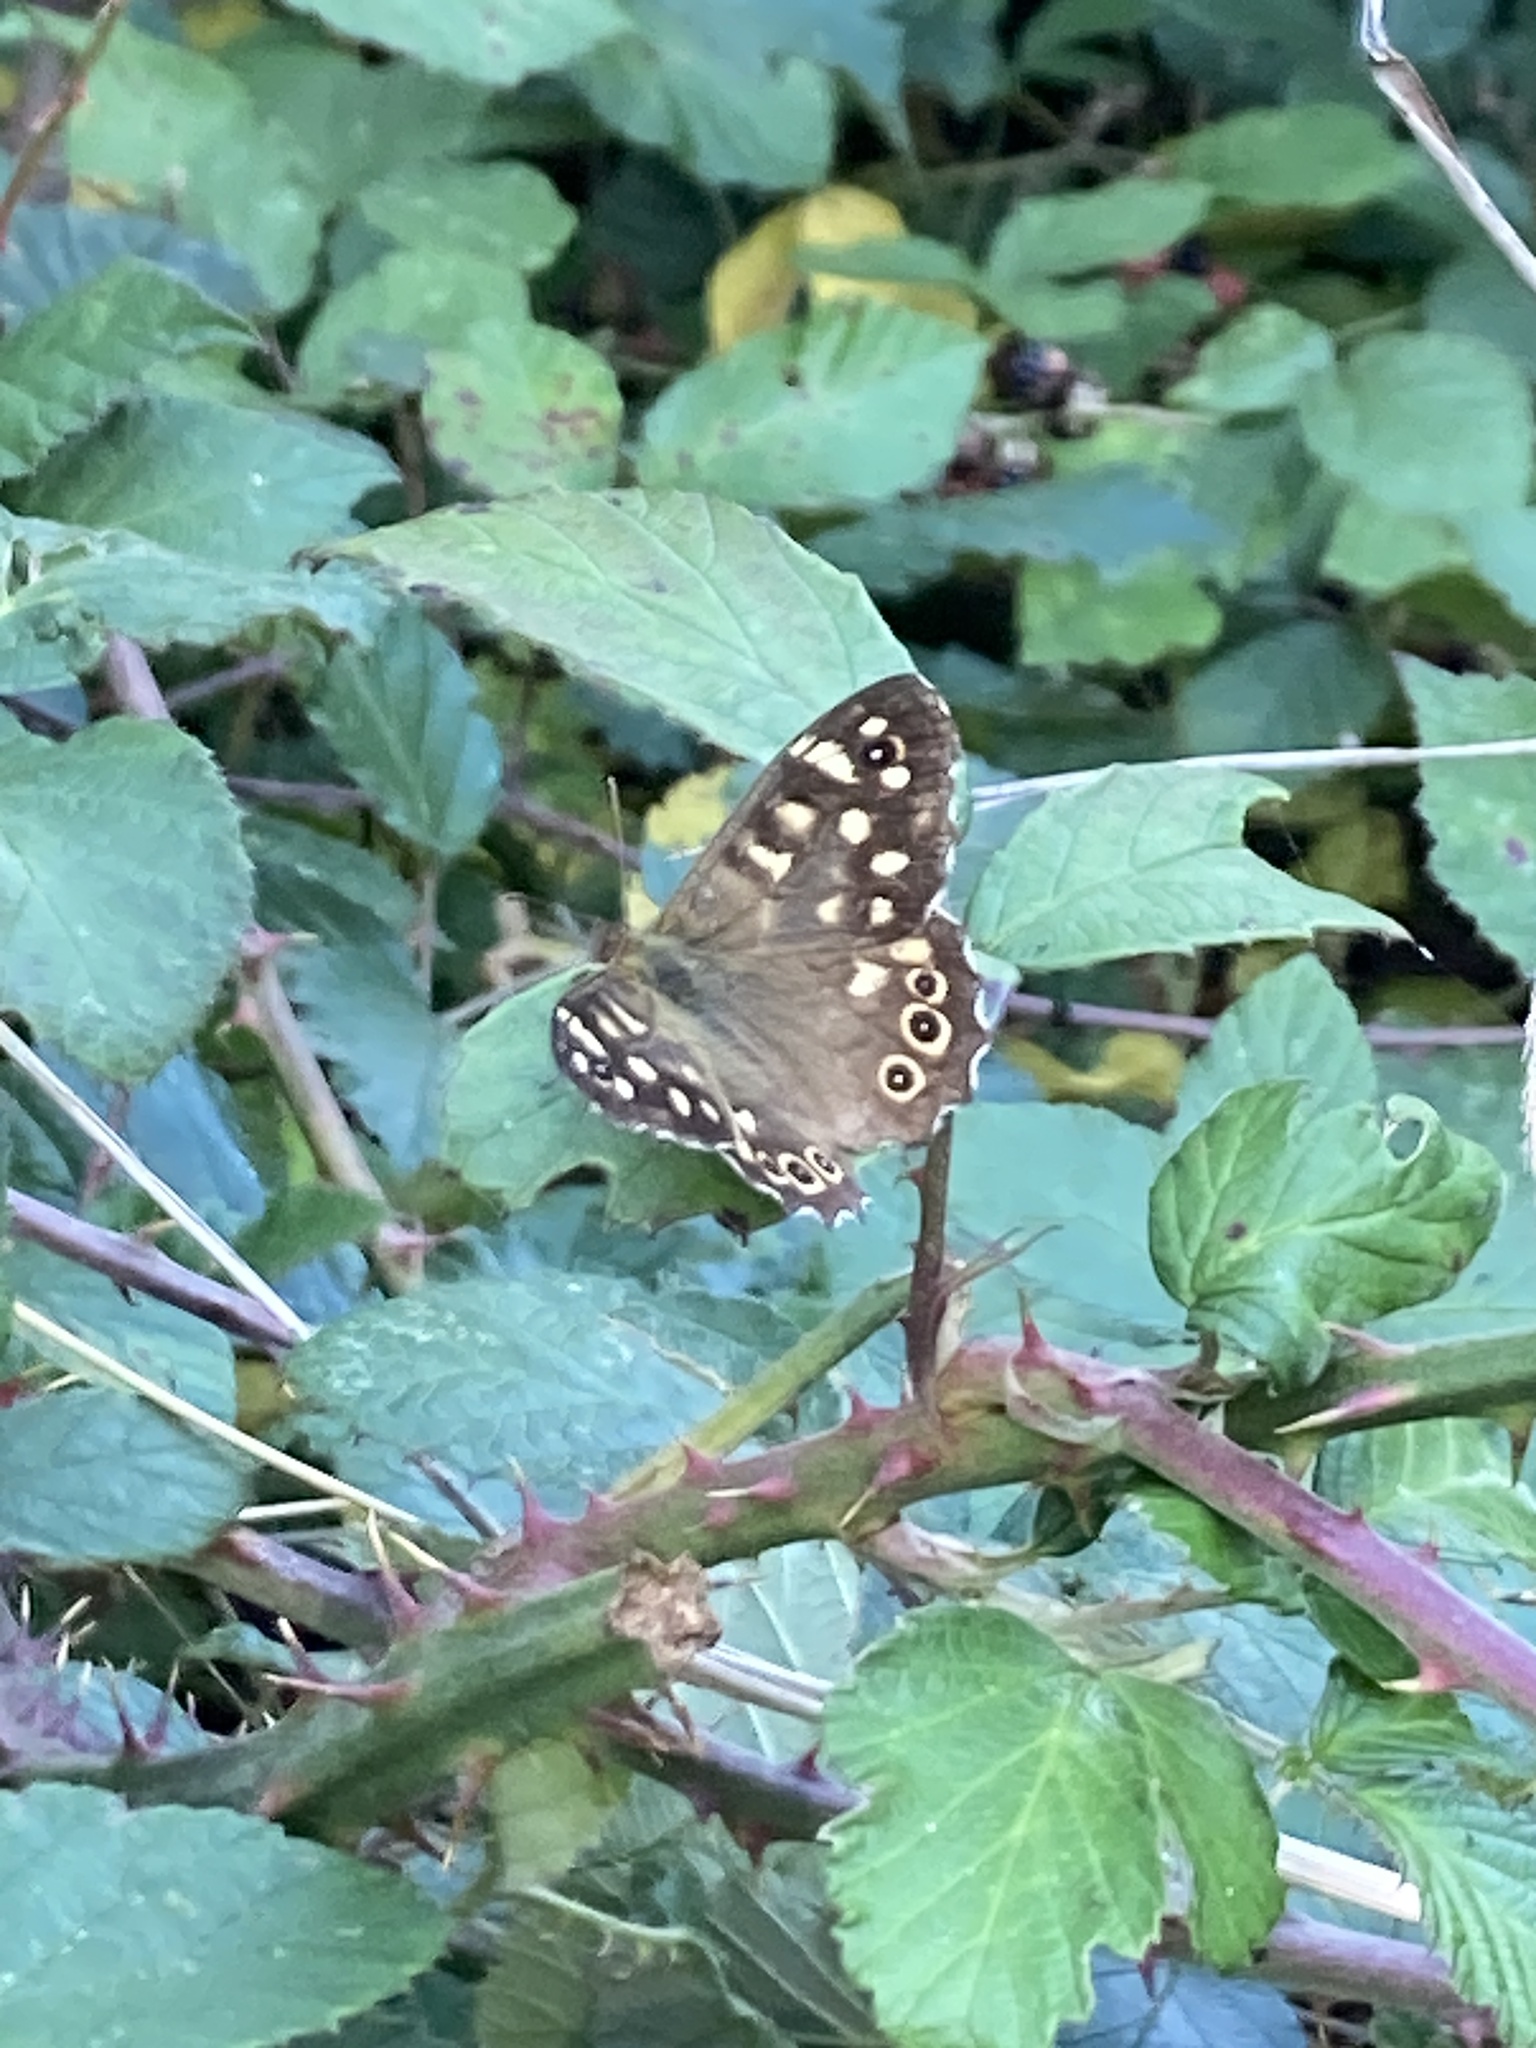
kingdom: Animalia
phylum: Arthropoda
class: Insecta
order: Lepidoptera
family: Nymphalidae
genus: Pararge
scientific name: Pararge aegeria
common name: Speckled wood
